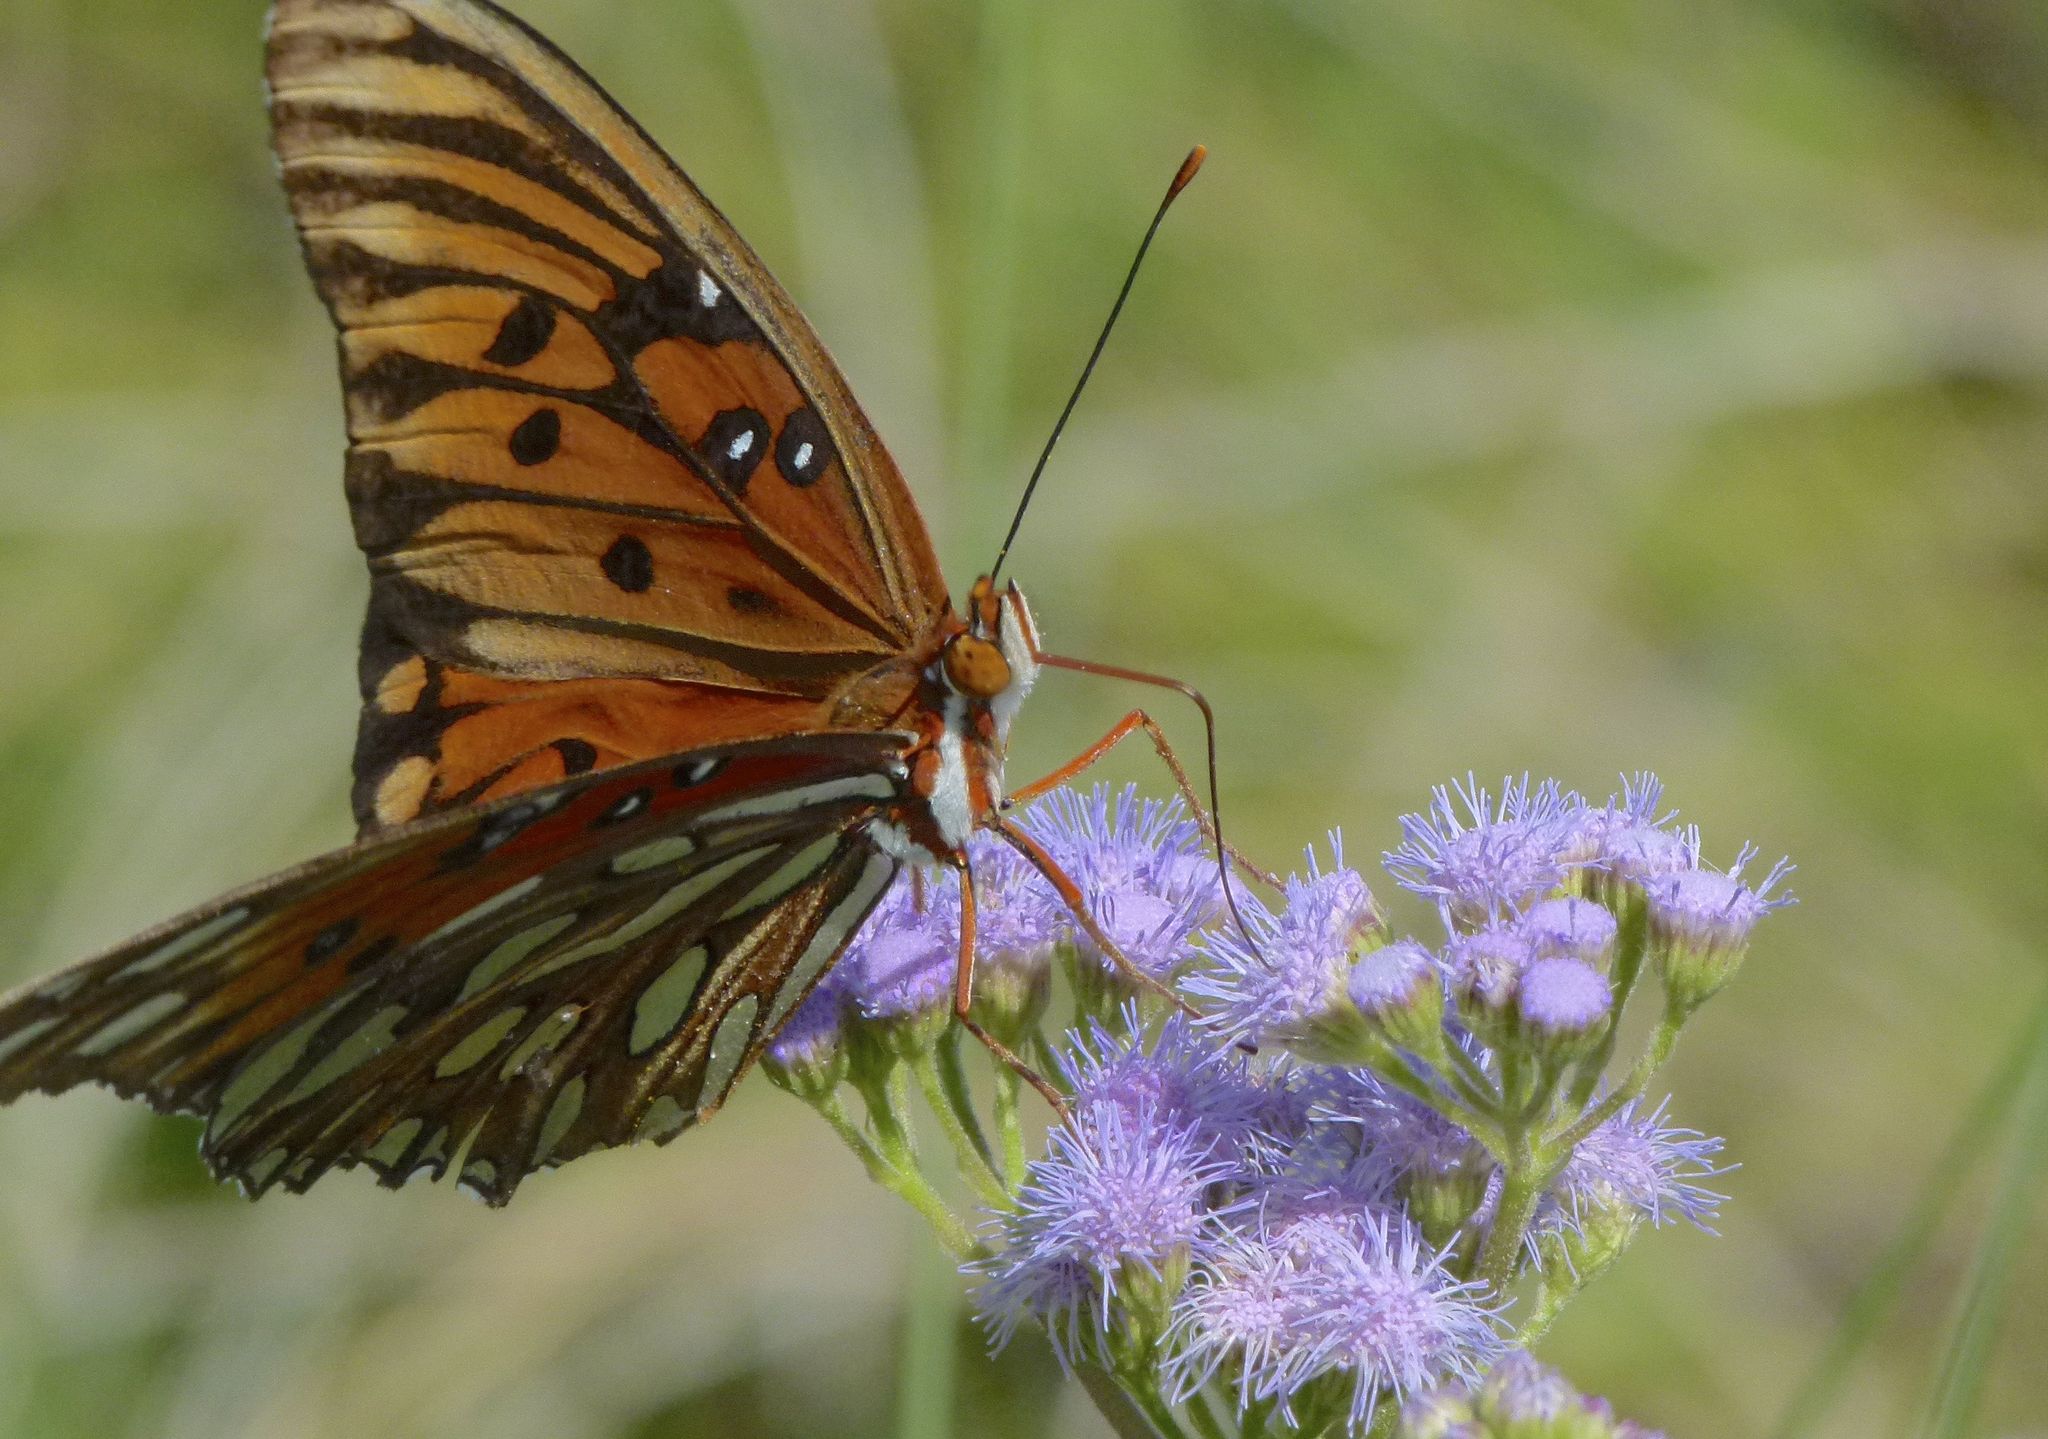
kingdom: Animalia
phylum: Arthropoda
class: Insecta
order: Lepidoptera
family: Nymphalidae
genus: Dione
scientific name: Dione vanillae
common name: Gulf fritillary
